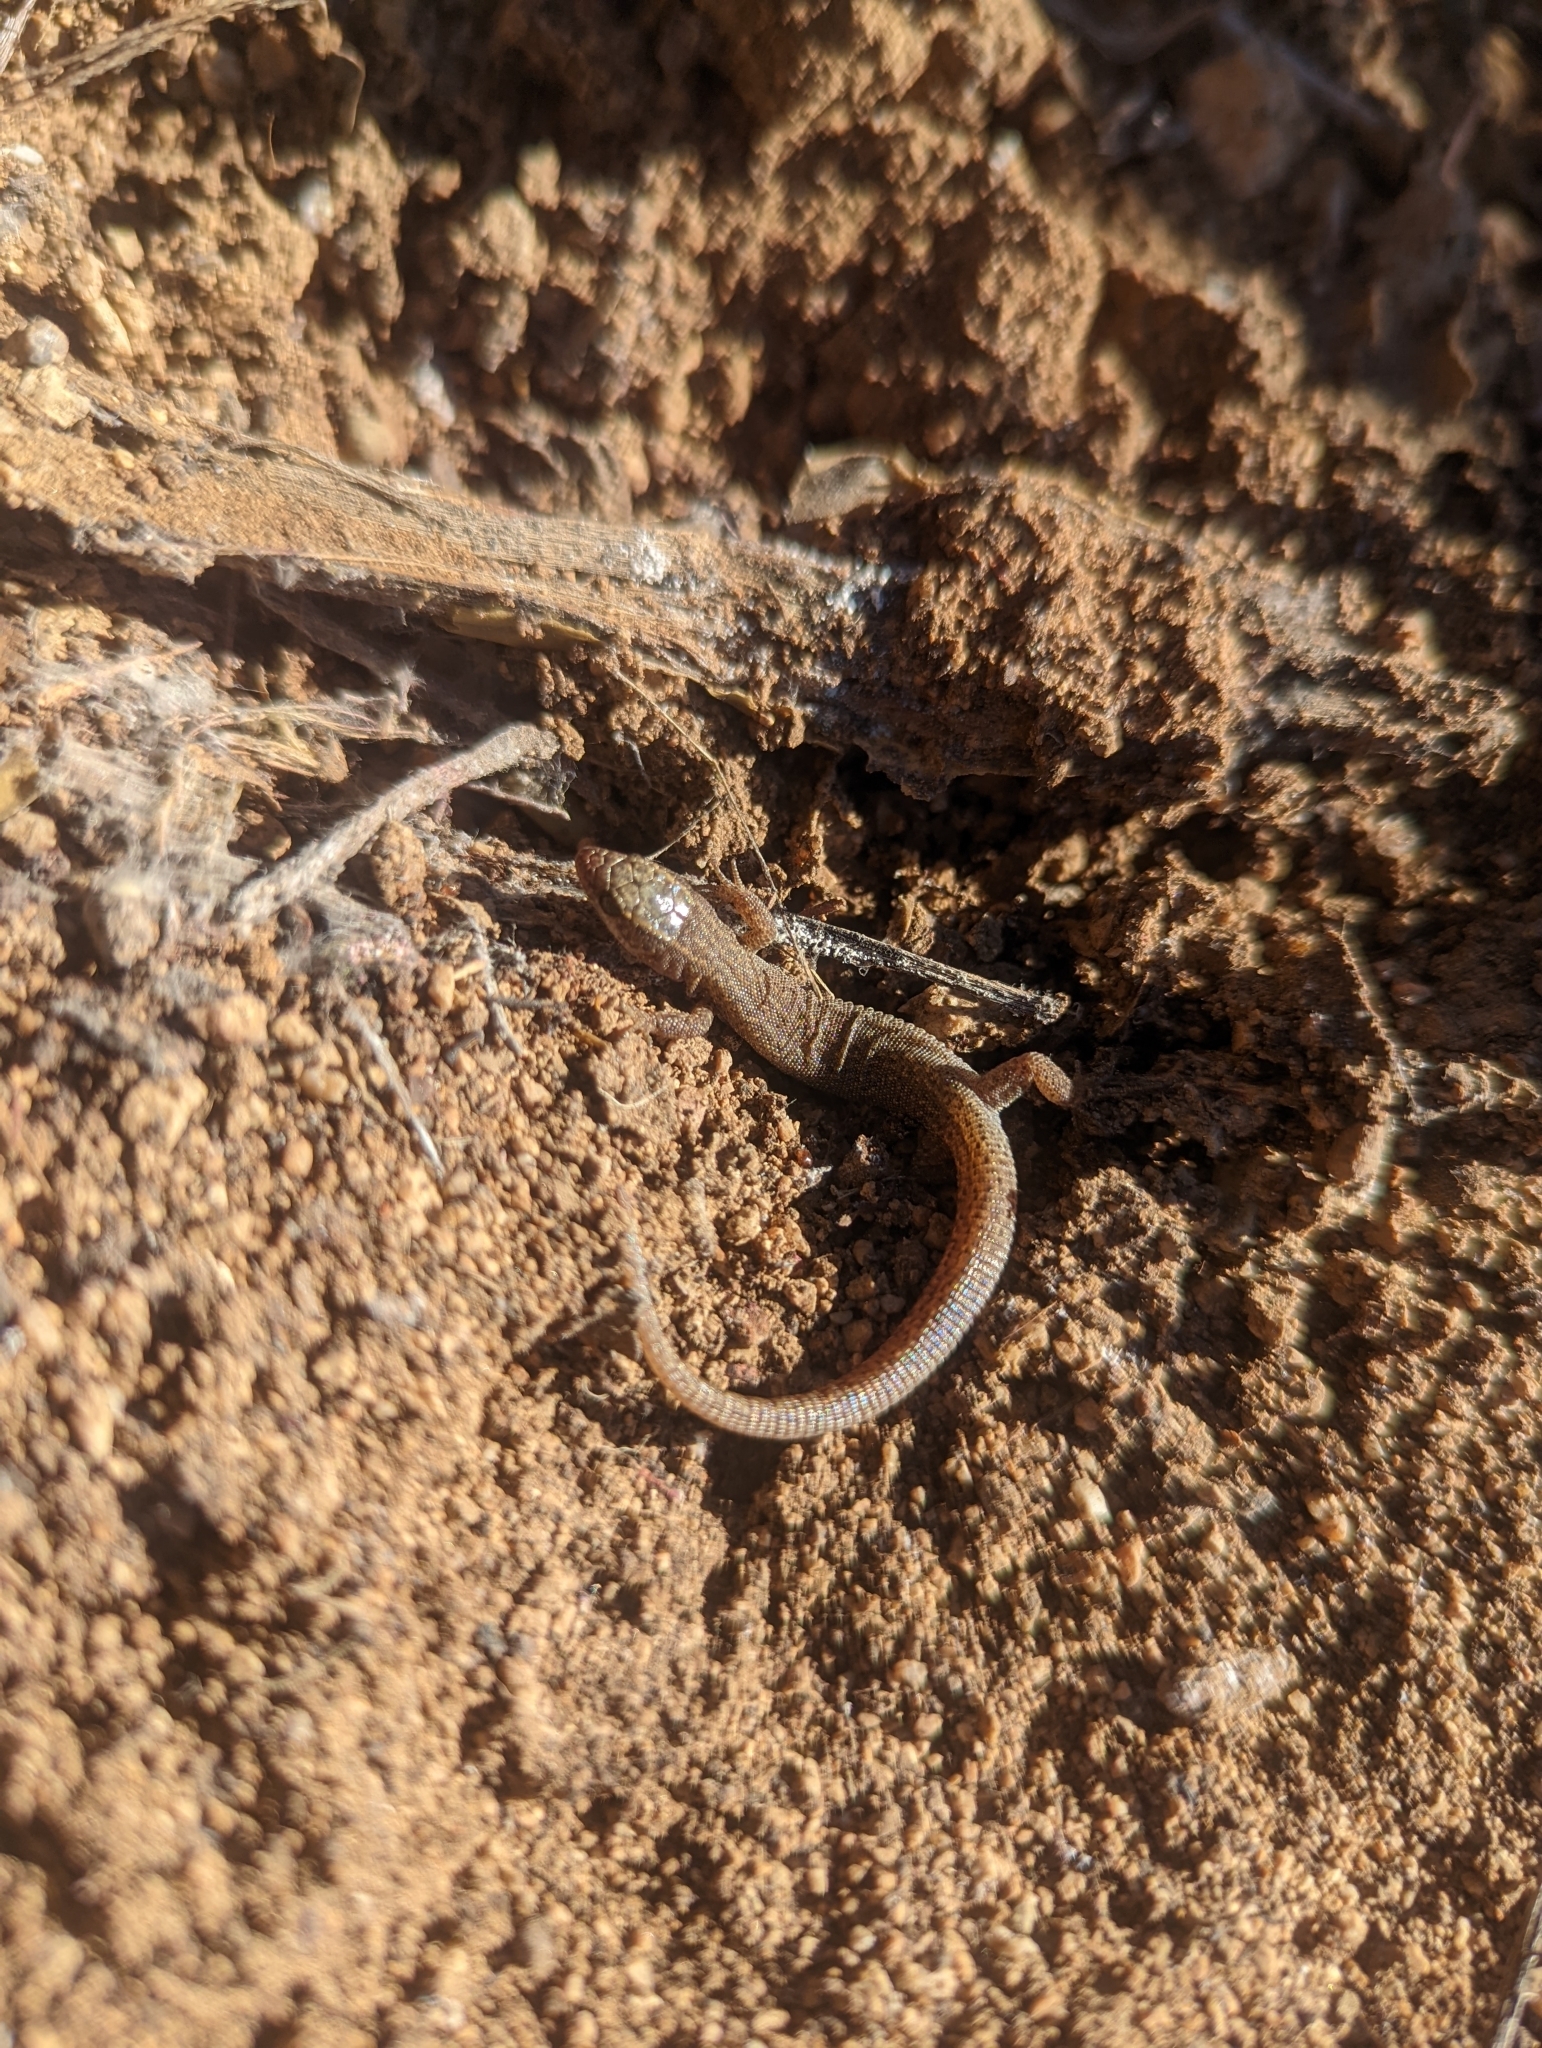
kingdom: Animalia
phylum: Chordata
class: Squamata
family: Xantusiidae
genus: Xantusia
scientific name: Xantusia vigilis
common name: Desert night lizard
